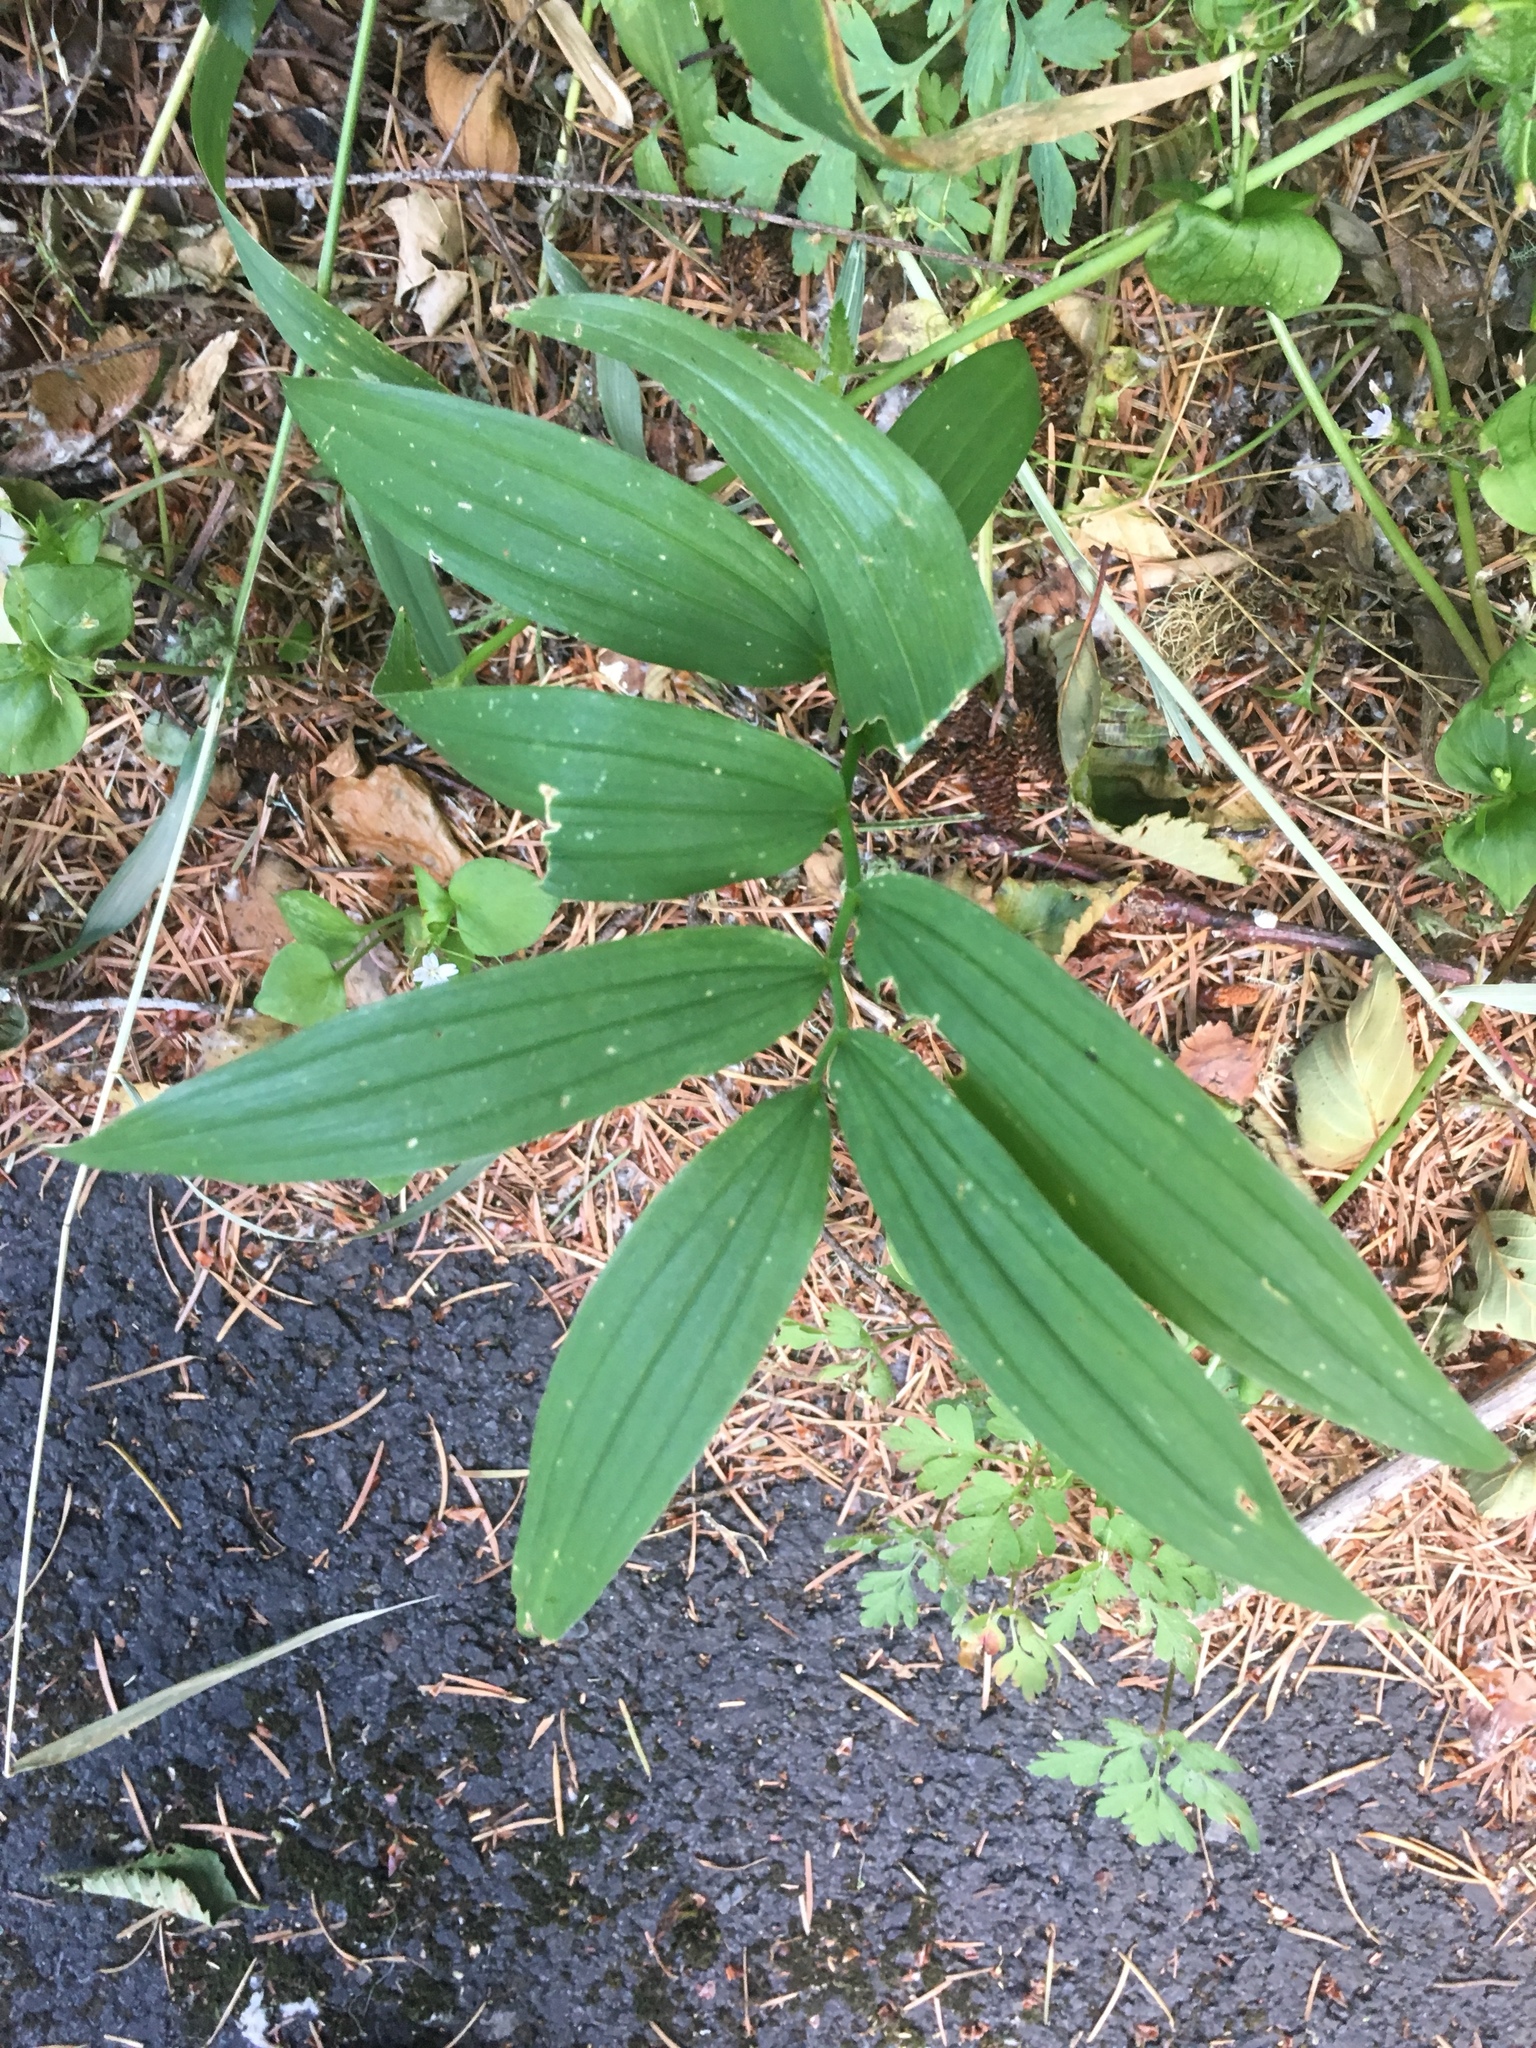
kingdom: Plantae
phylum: Tracheophyta
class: Liliopsida
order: Asparagales
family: Asparagaceae
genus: Maianthemum
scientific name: Maianthemum stellatum
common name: Little false solomon's seal
